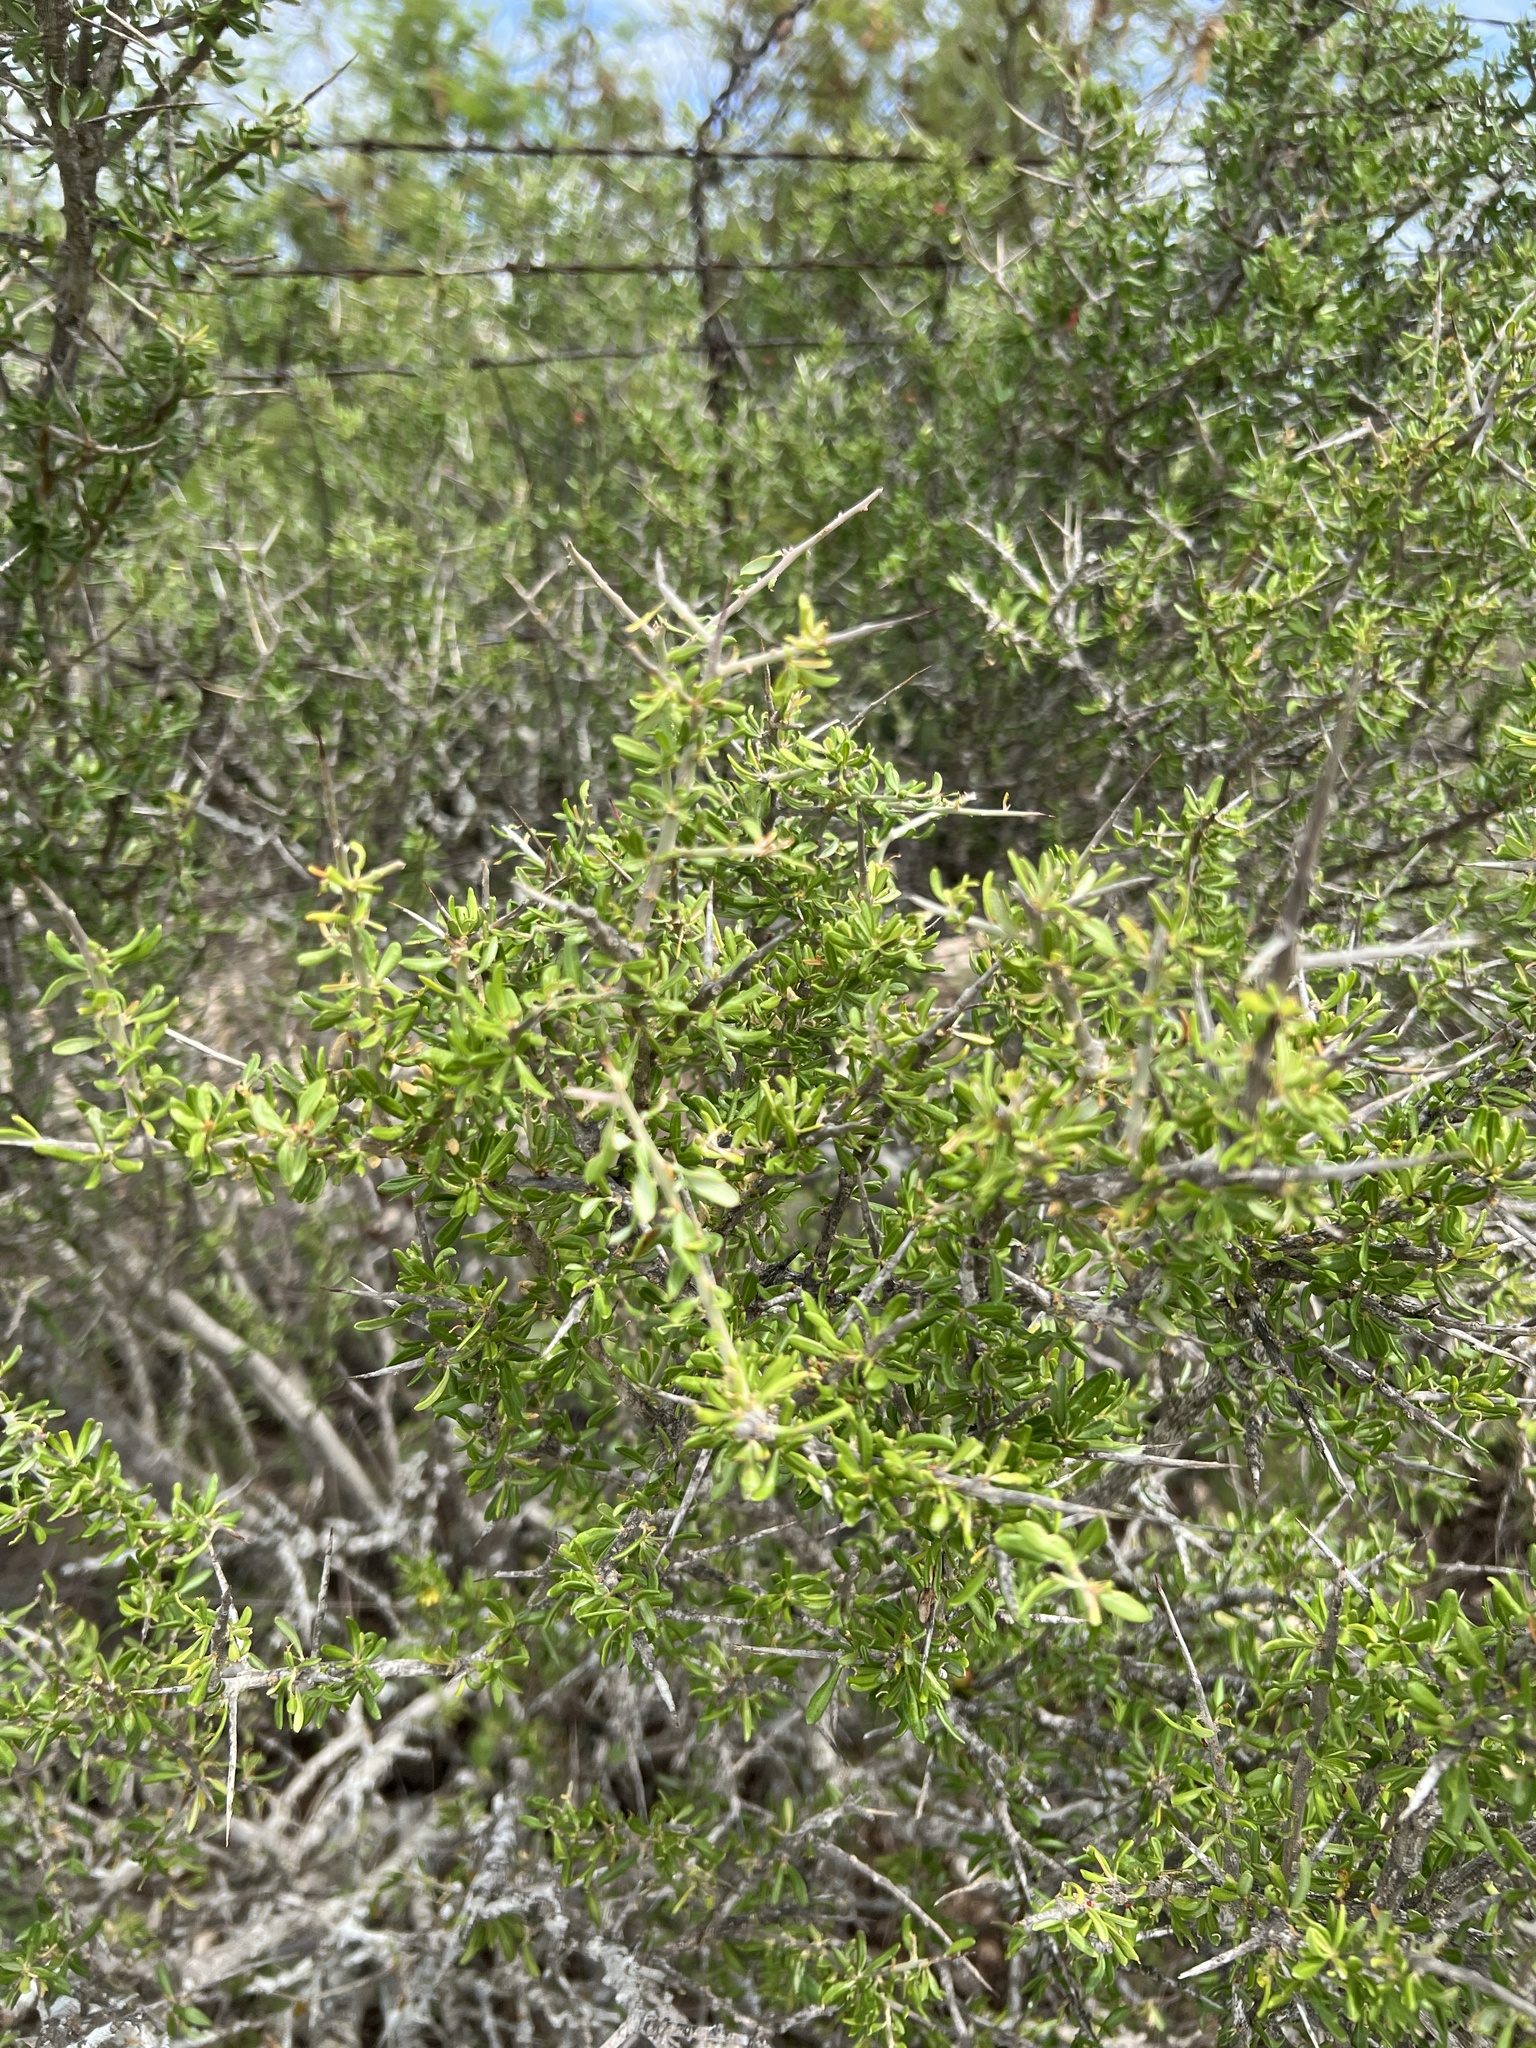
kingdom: Plantae
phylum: Tracheophyta
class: Magnoliopsida
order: Sapindales
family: Simaroubaceae
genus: Castela
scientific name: Castela erecta
